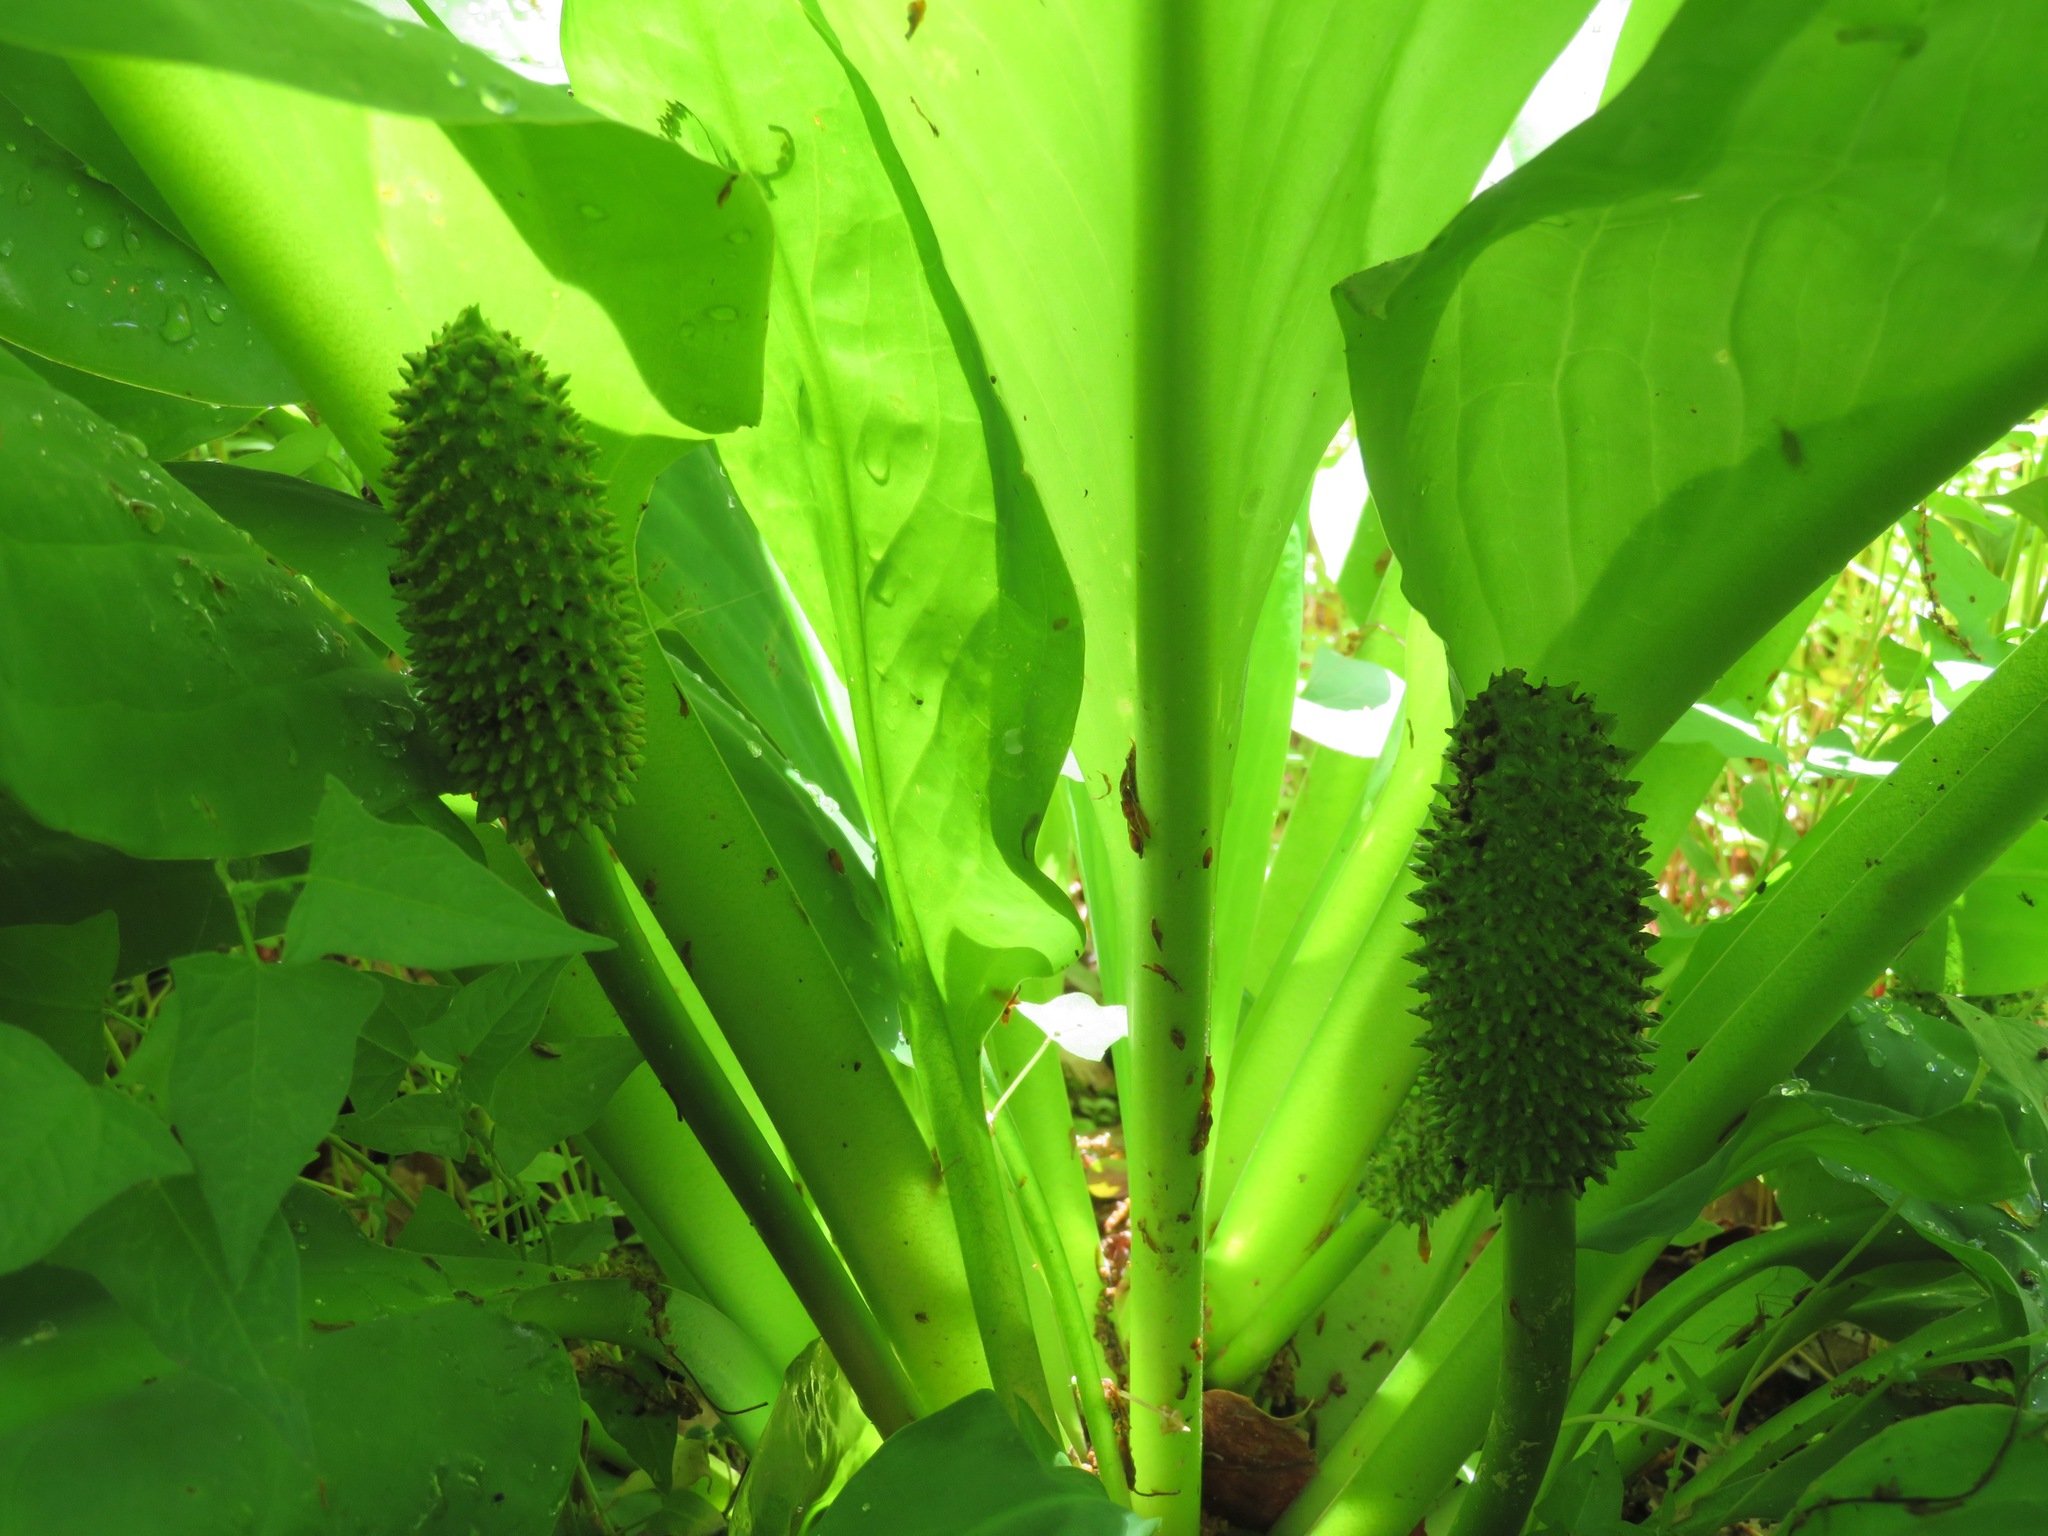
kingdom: Plantae
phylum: Tracheophyta
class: Liliopsida
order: Alismatales
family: Araceae
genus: Lysichiton
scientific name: Lysichiton camtschatcensis
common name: Asian skunk-cabbage
